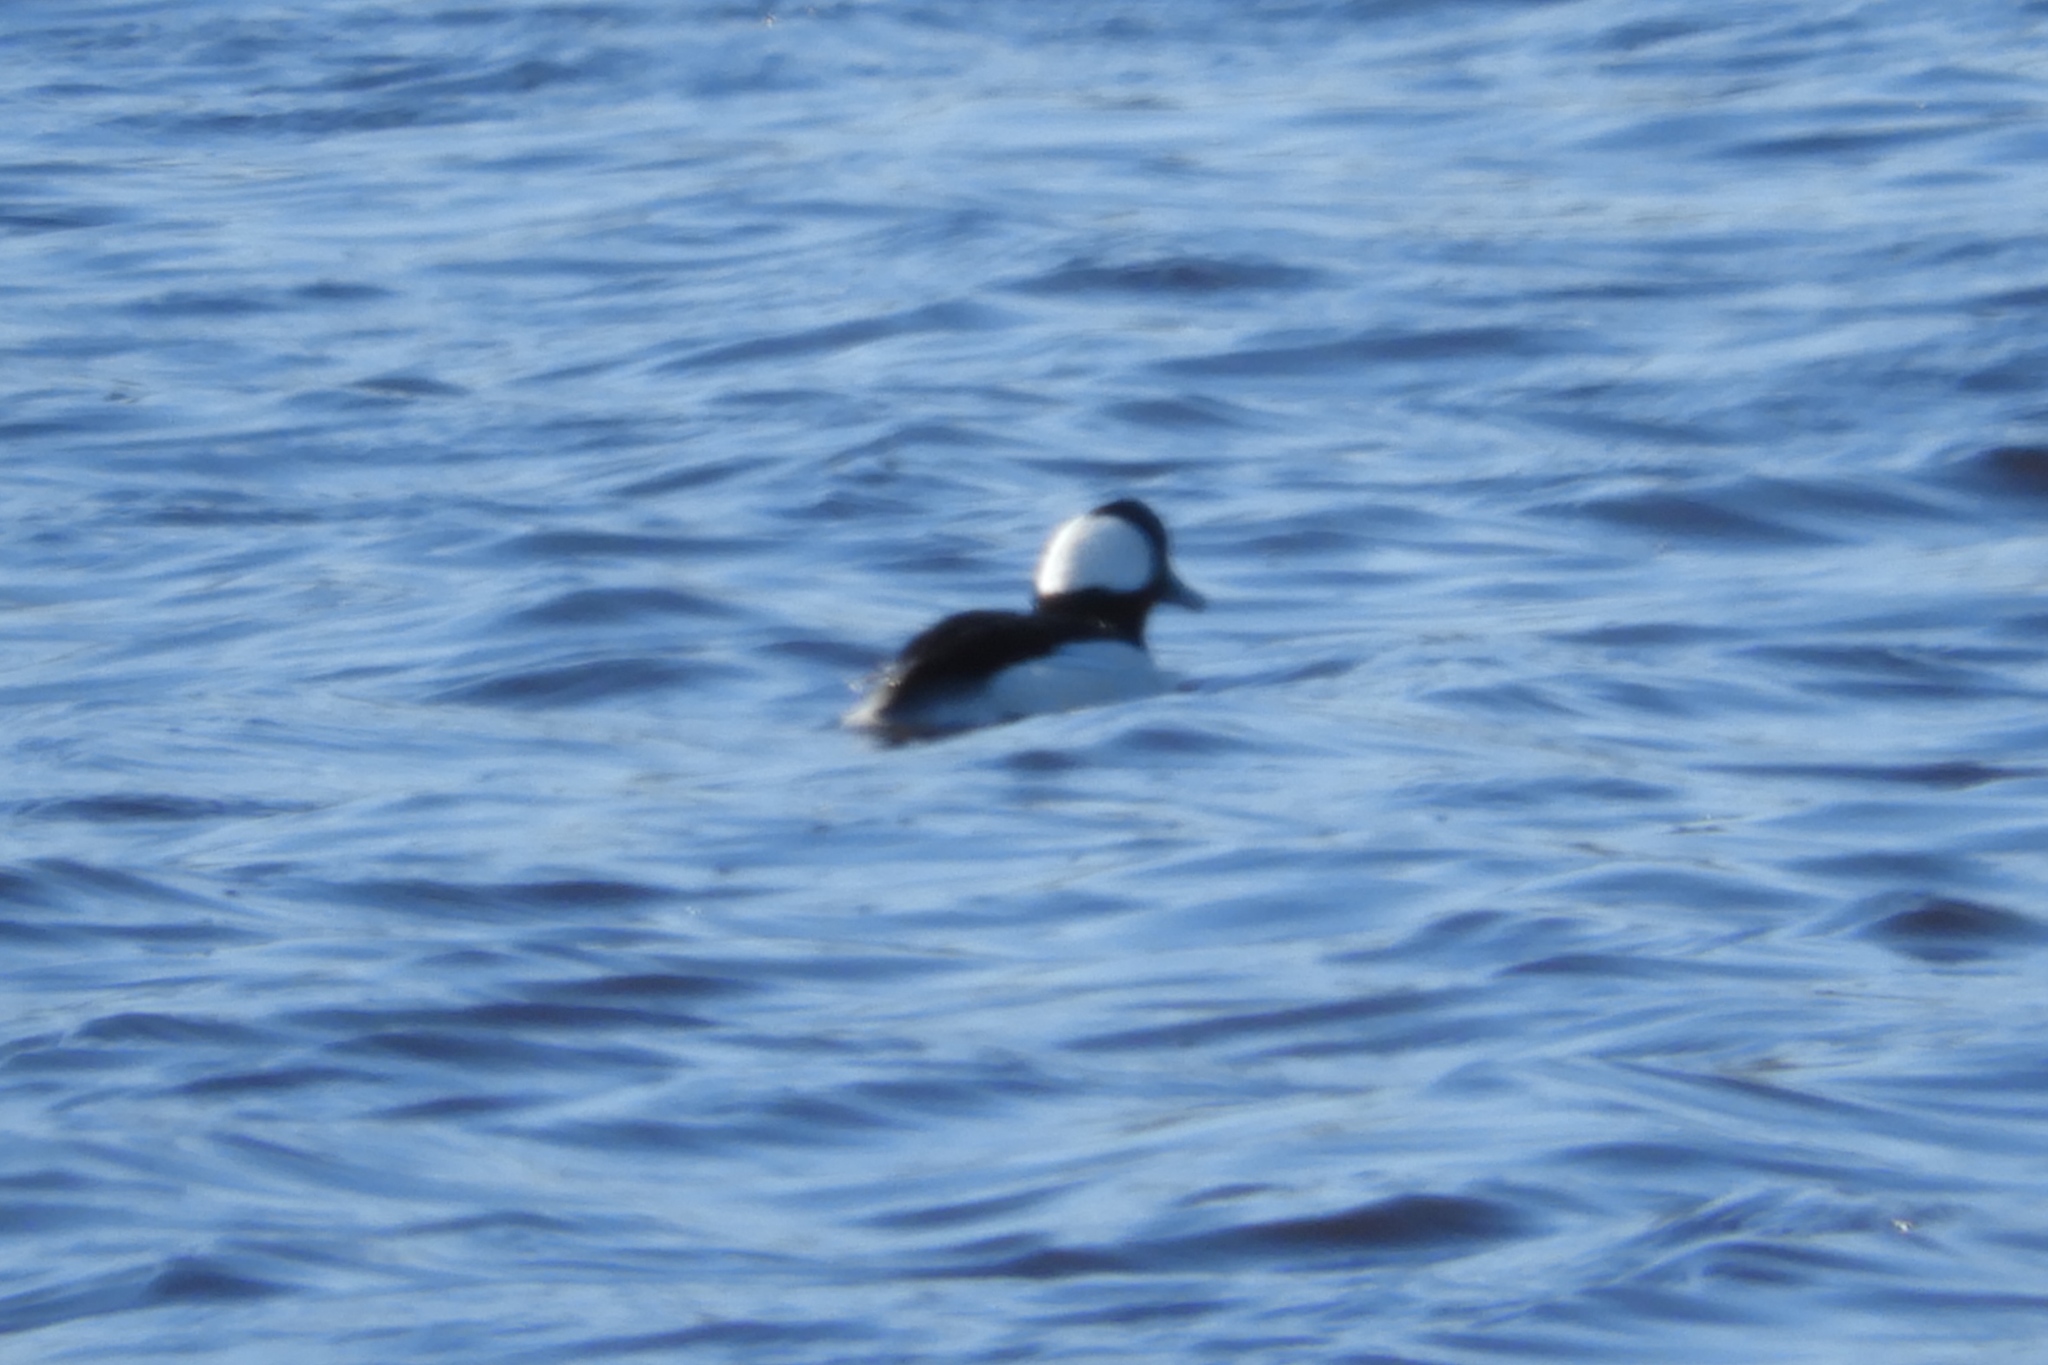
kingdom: Animalia
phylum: Chordata
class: Aves
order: Anseriformes
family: Anatidae
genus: Bucephala
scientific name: Bucephala albeola
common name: Bufflehead
